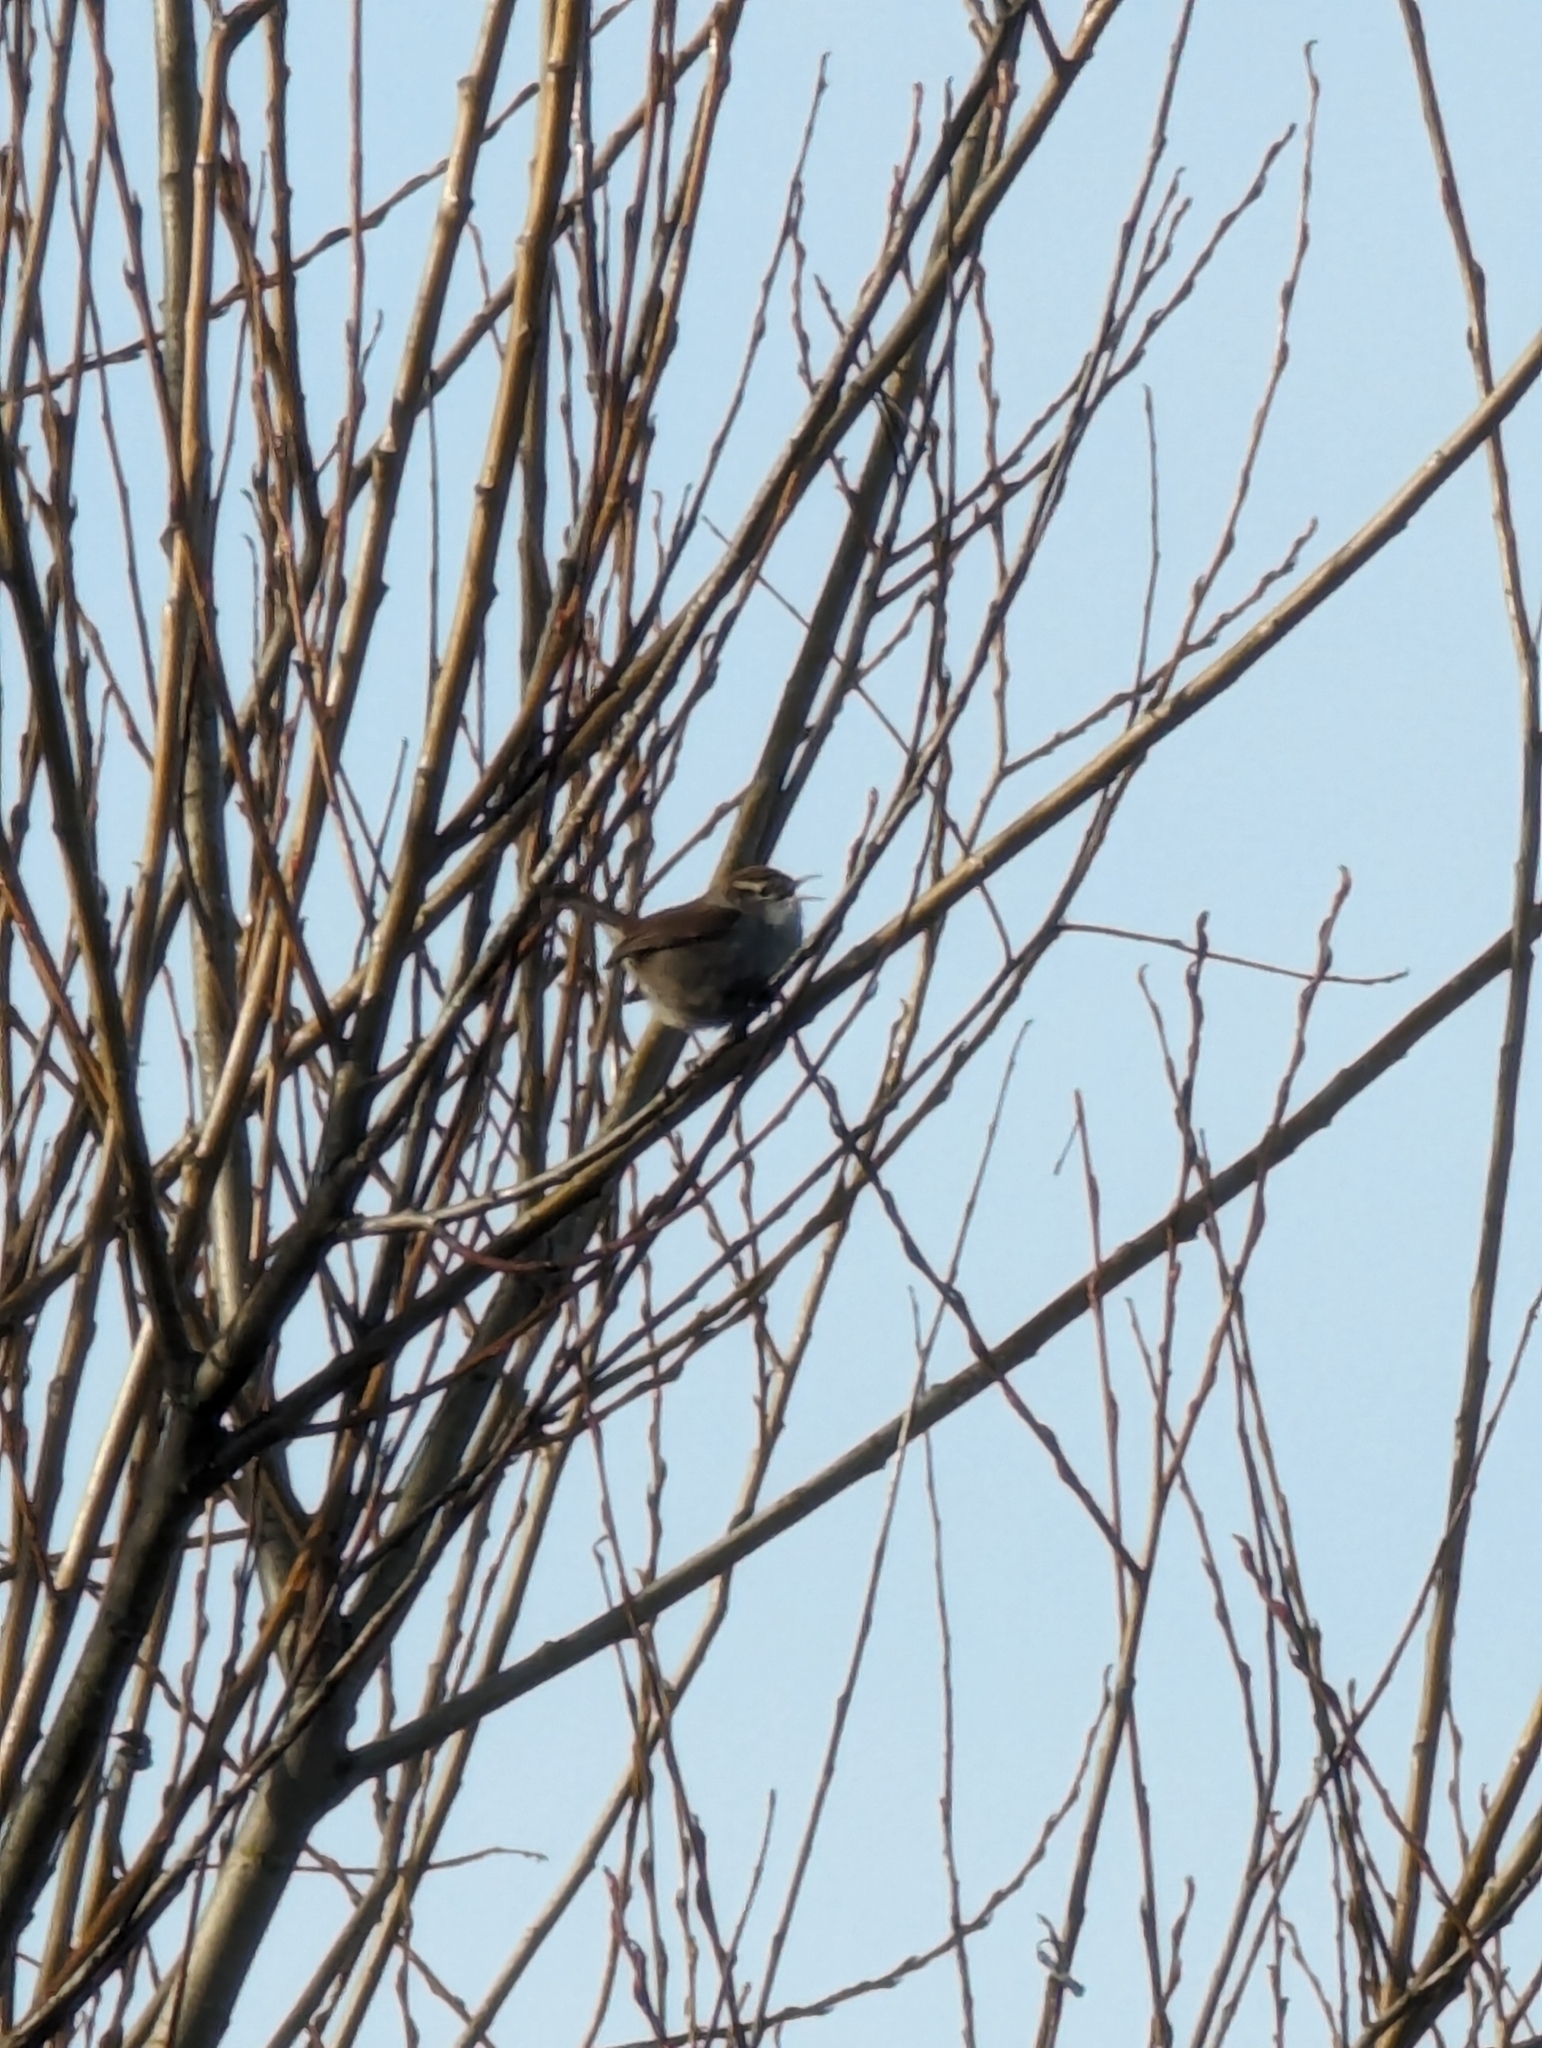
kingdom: Animalia
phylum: Chordata
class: Aves
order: Passeriformes
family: Troglodytidae
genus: Thryomanes
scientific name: Thryomanes bewickii
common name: Bewick's wren
